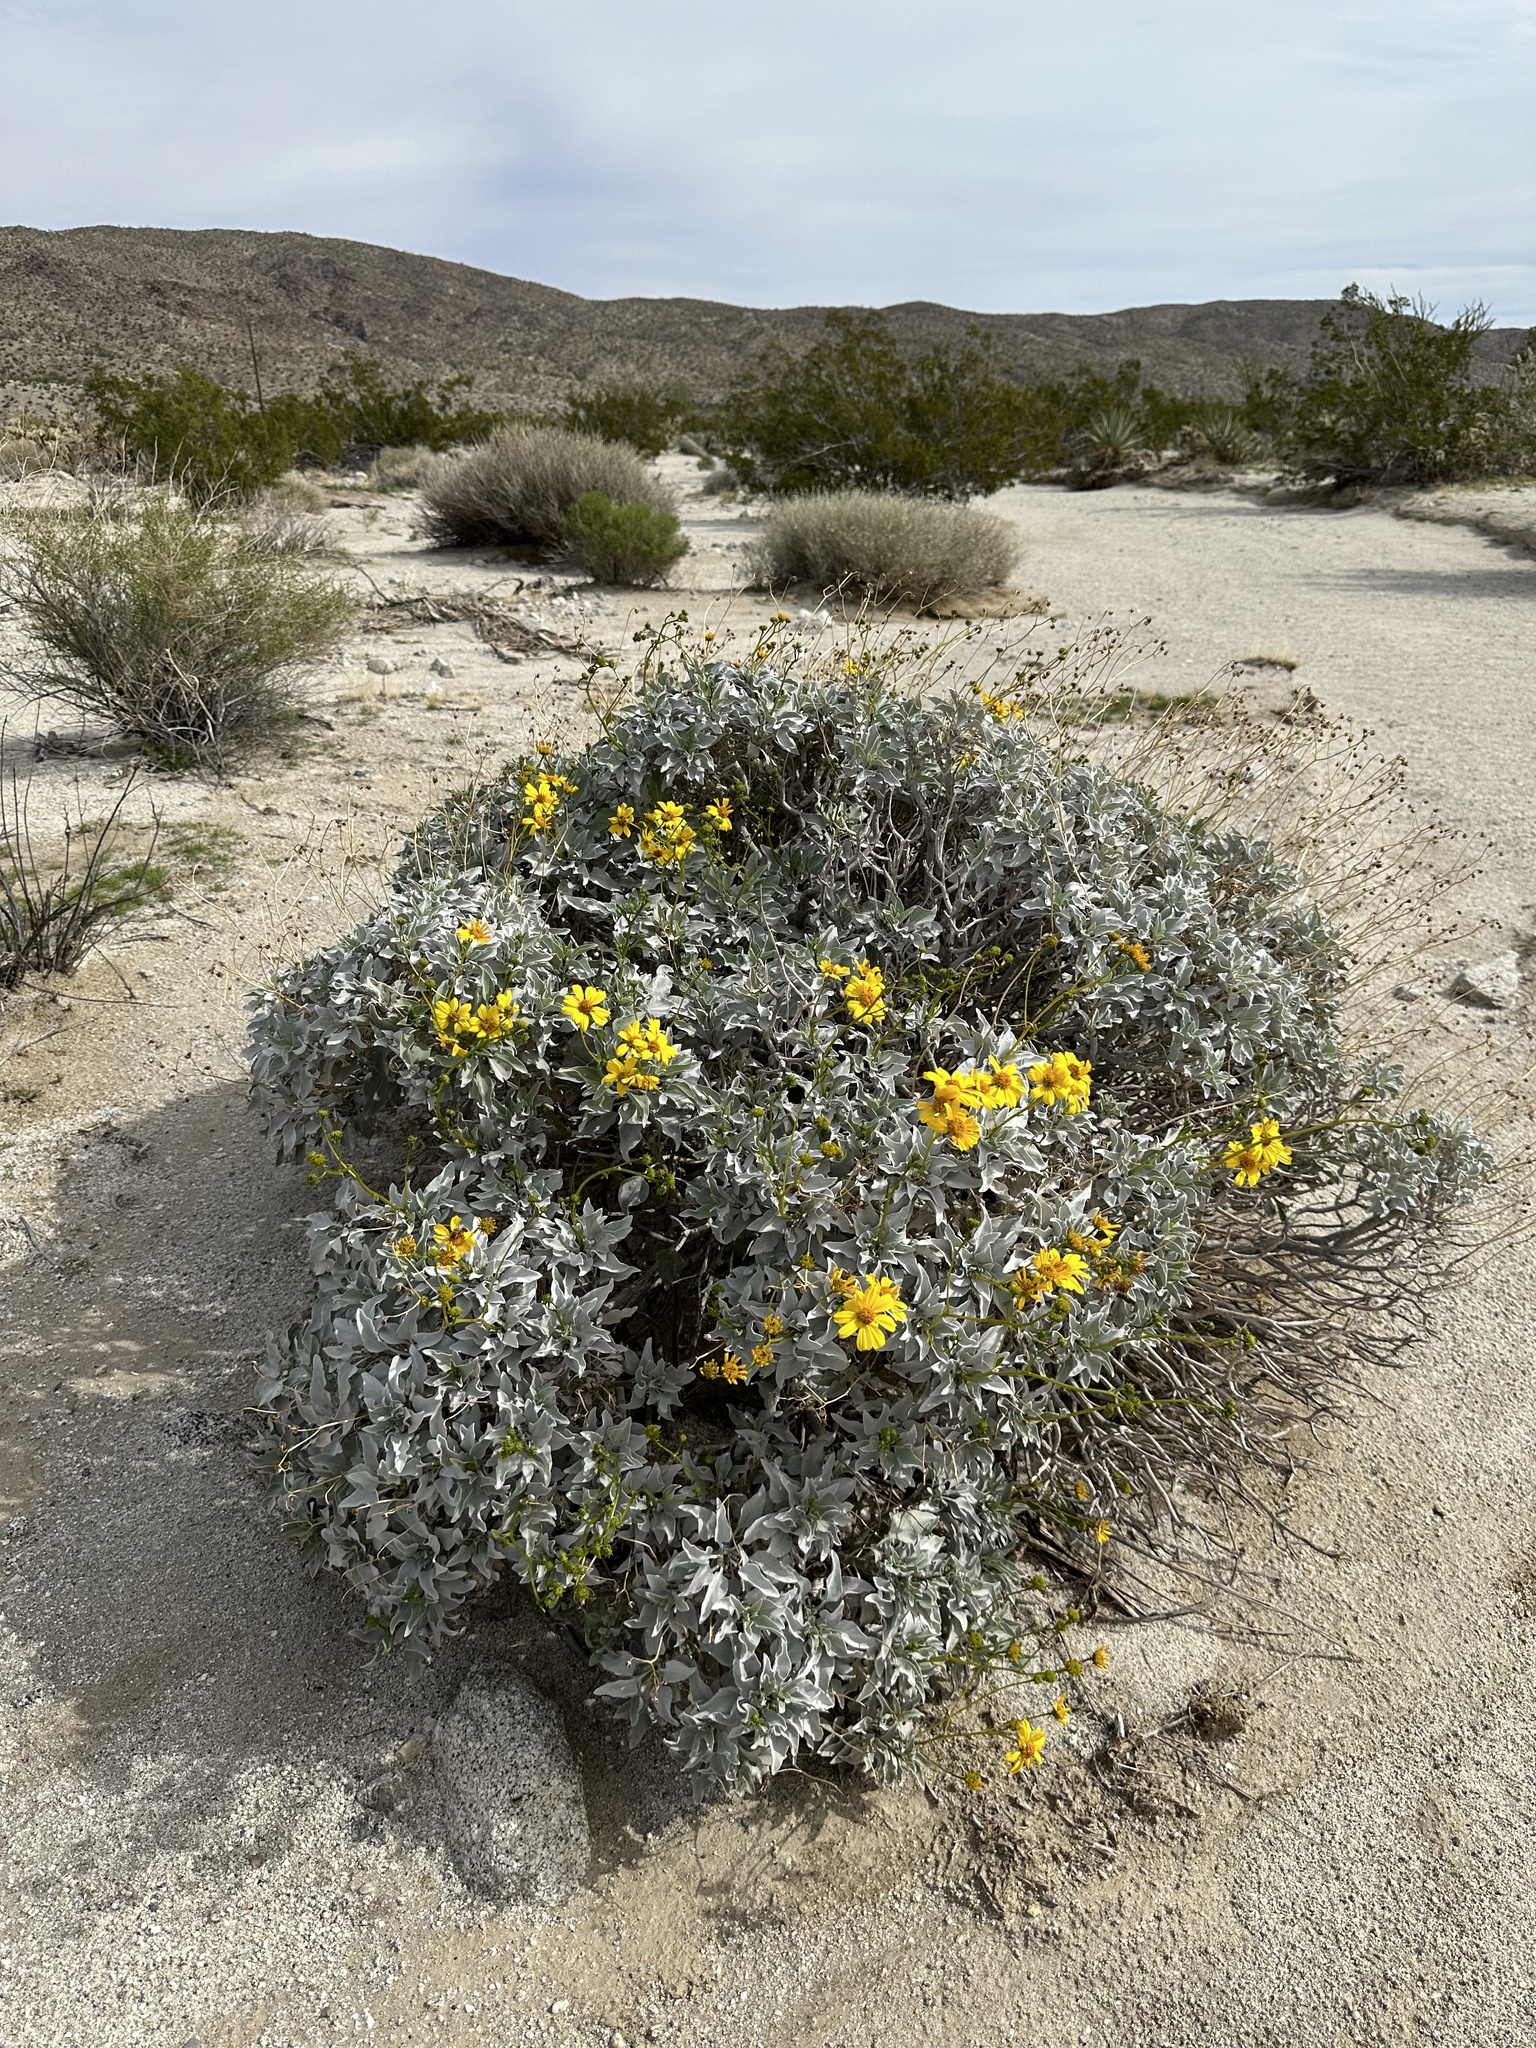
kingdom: Plantae
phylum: Tracheophyta
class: Magnoliopsida
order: Asterales
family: Asteraceae
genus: Encelia
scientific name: Encelia farinosa
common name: Brittlebush
